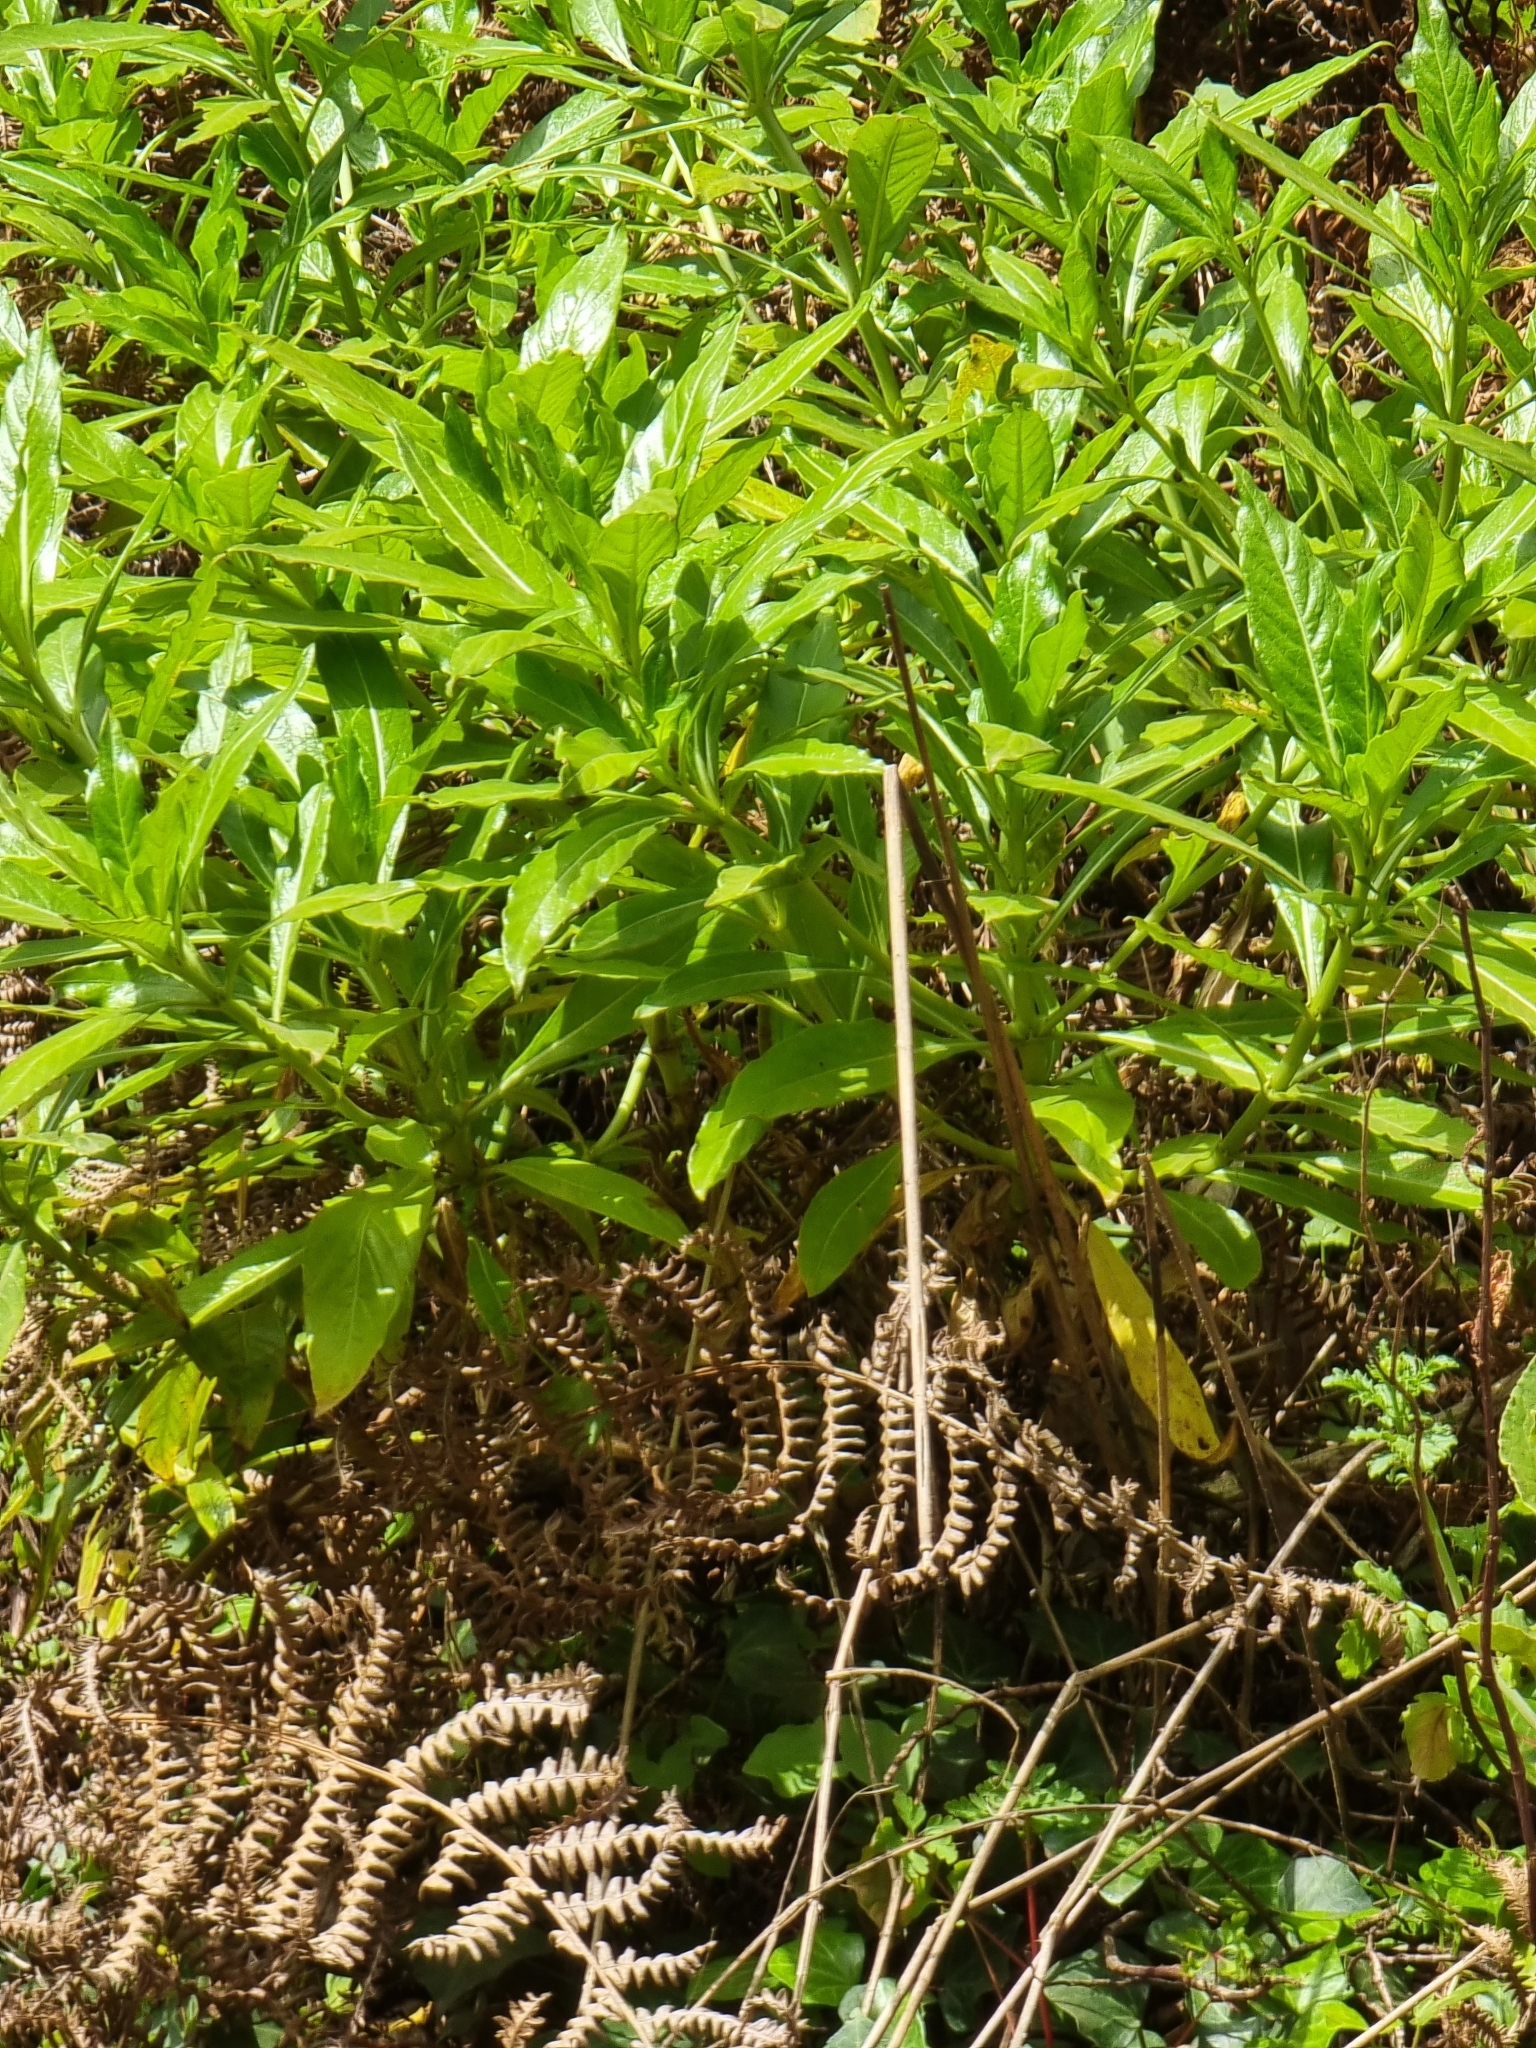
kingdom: Plantae
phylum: Tracheophyta
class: Magnoliopsida
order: Gentianales
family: Rubiaceae
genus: Phyllis
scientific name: Phyllis nobla
